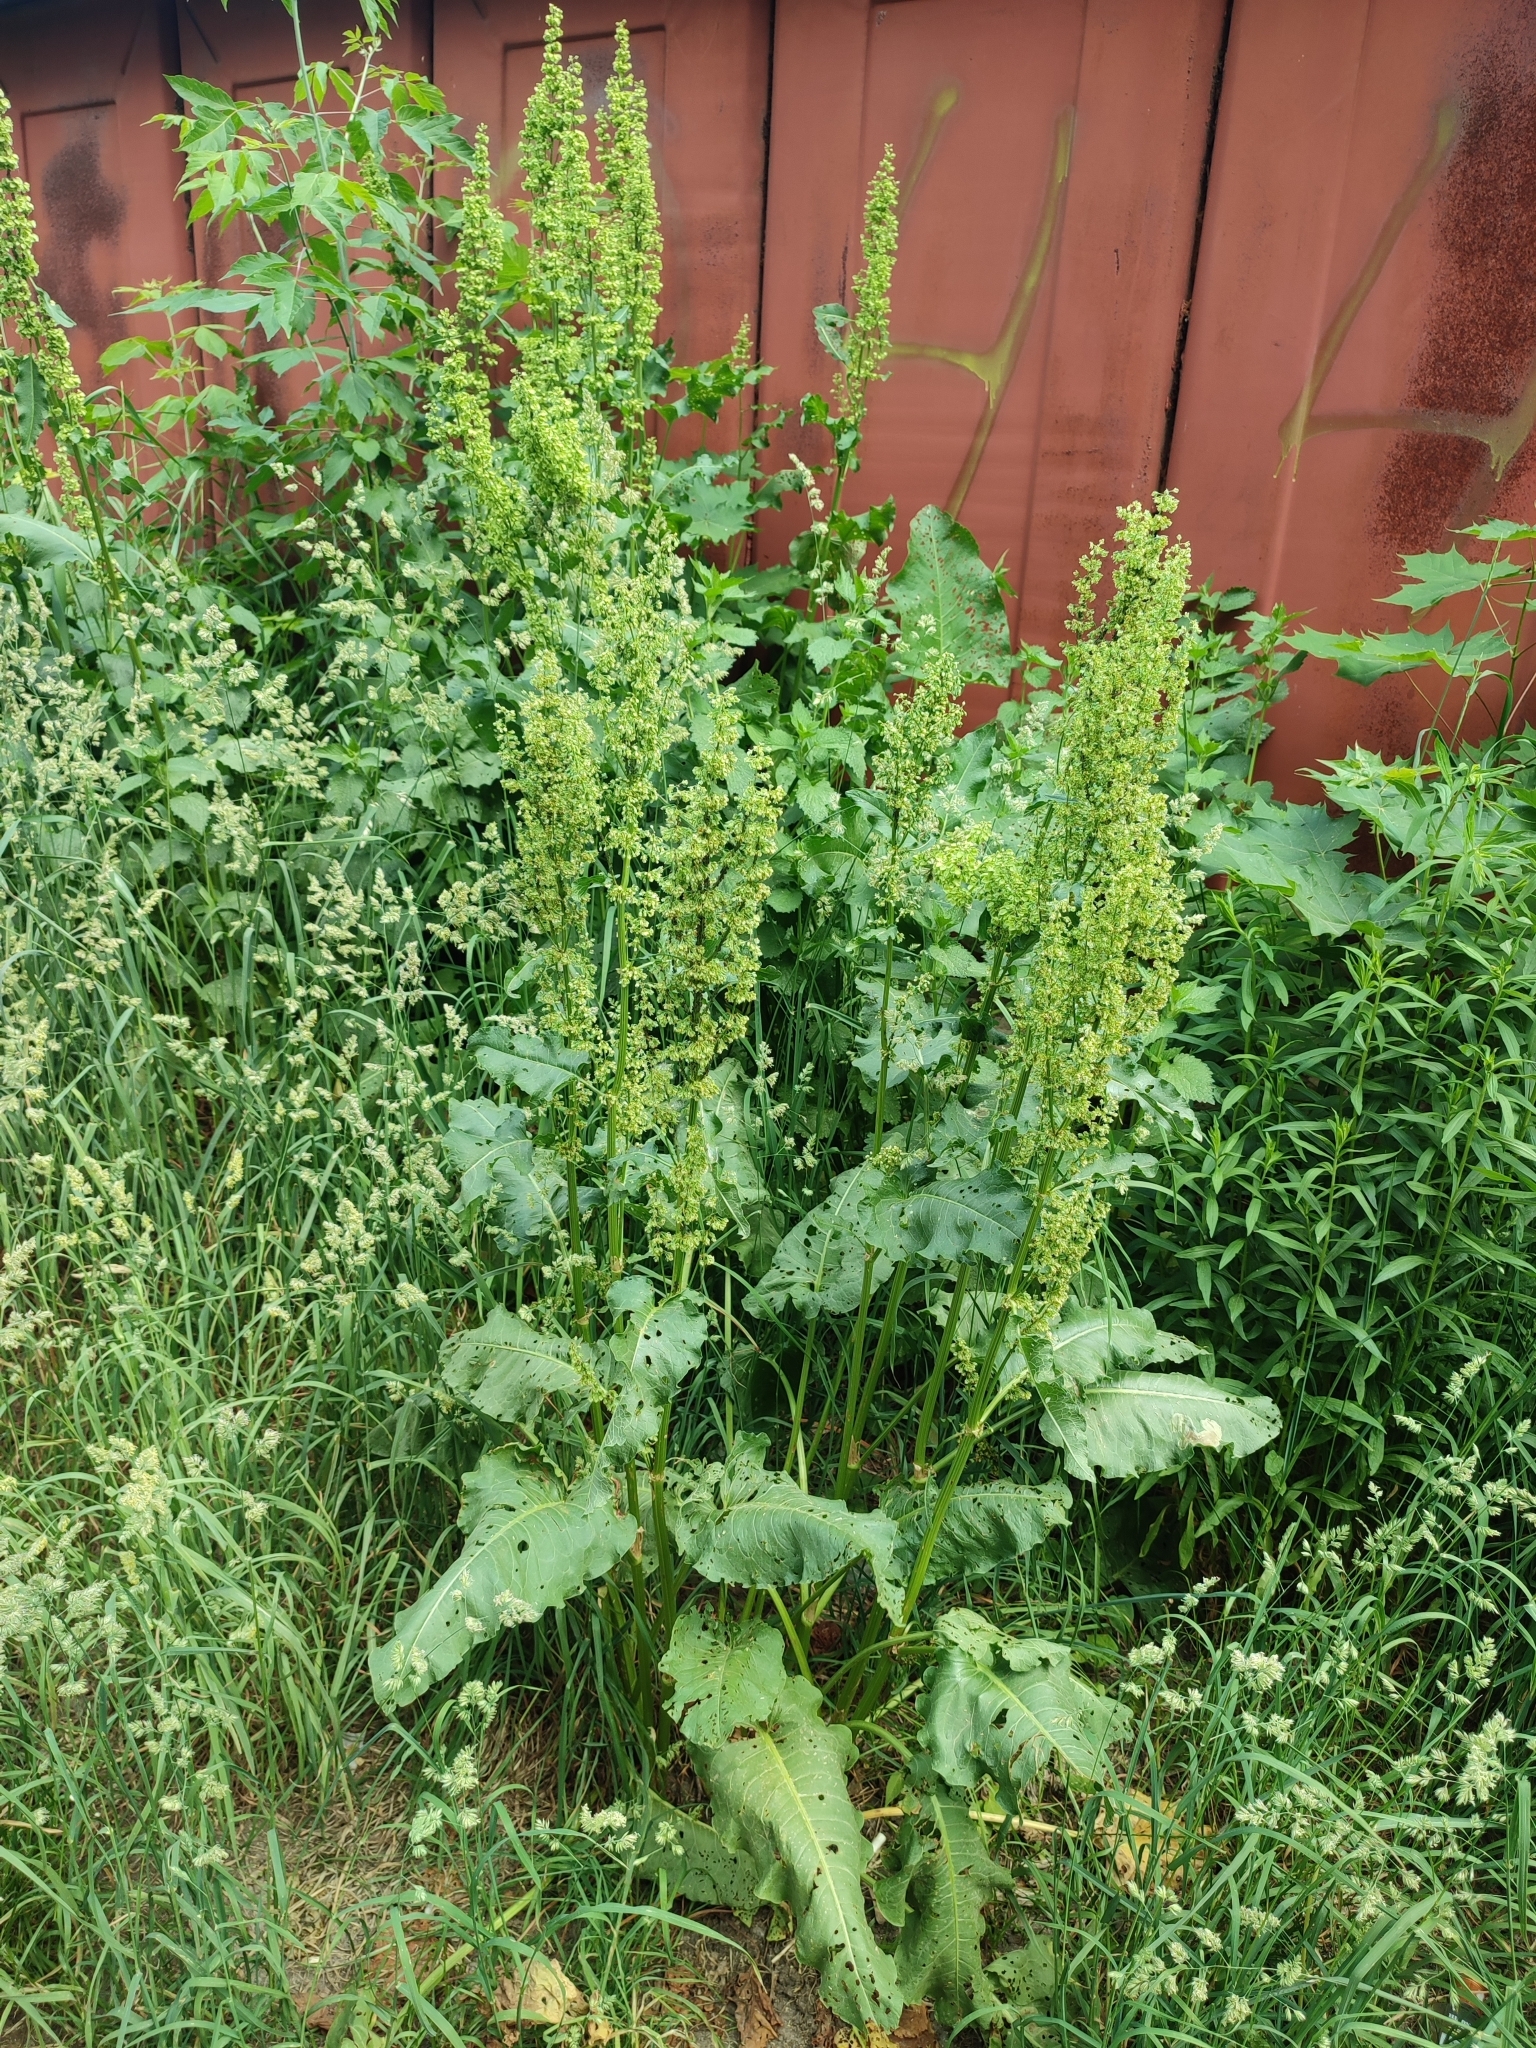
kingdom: Plantae
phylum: Tracheophyta
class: Magnoliopsida
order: Caryophyllales
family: Polygonaceae
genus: Rumex
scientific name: Rumex confertus
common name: Russian dock
